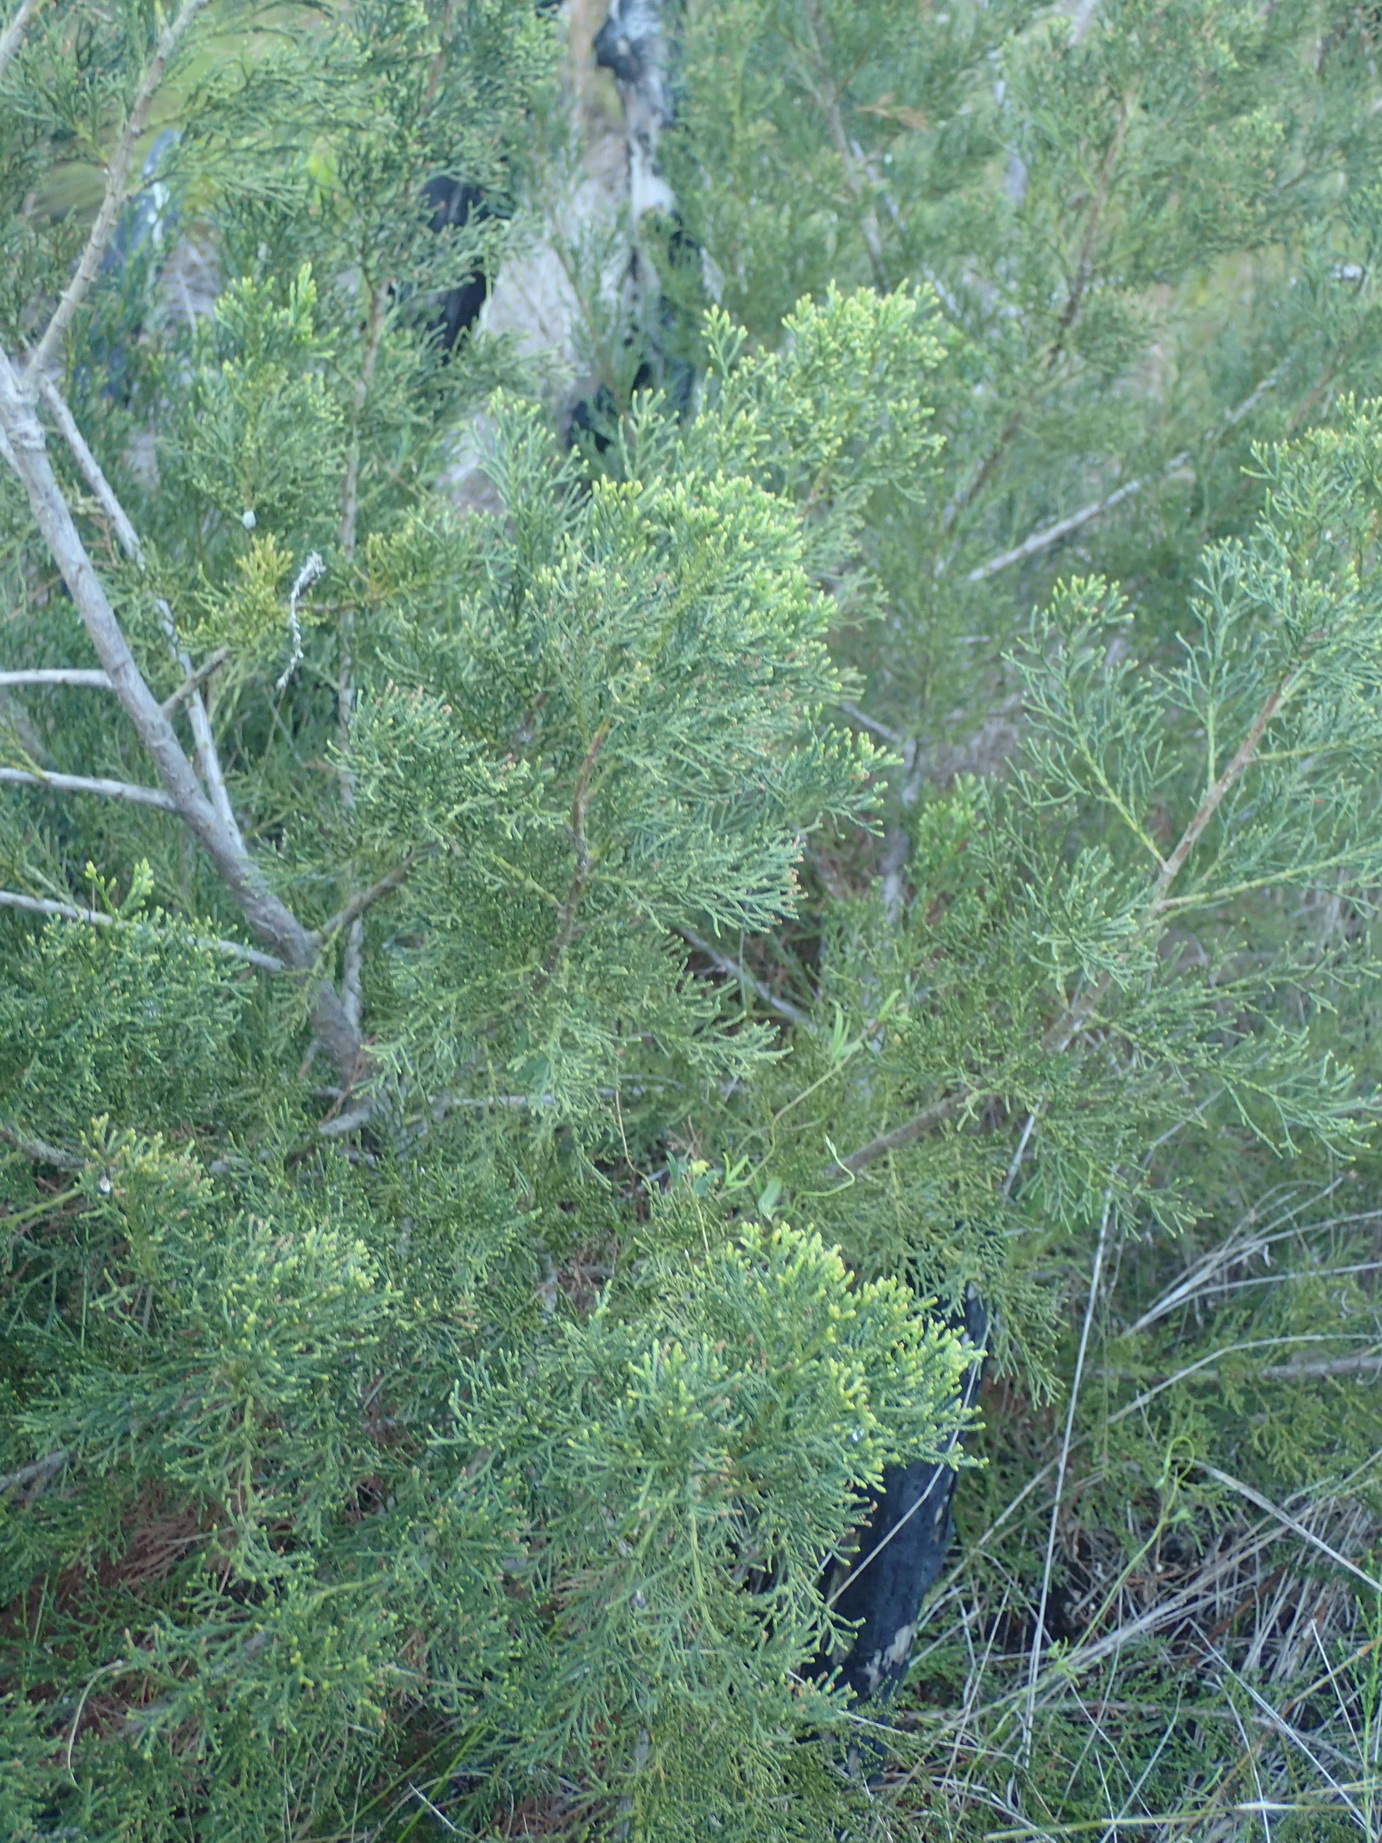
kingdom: Plantae
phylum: Tracheophyta
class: Pinopsida
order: Pinales
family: Cupressaceae
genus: Widdringtonia
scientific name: Widdringtonia nodiflora
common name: Cape cypress
